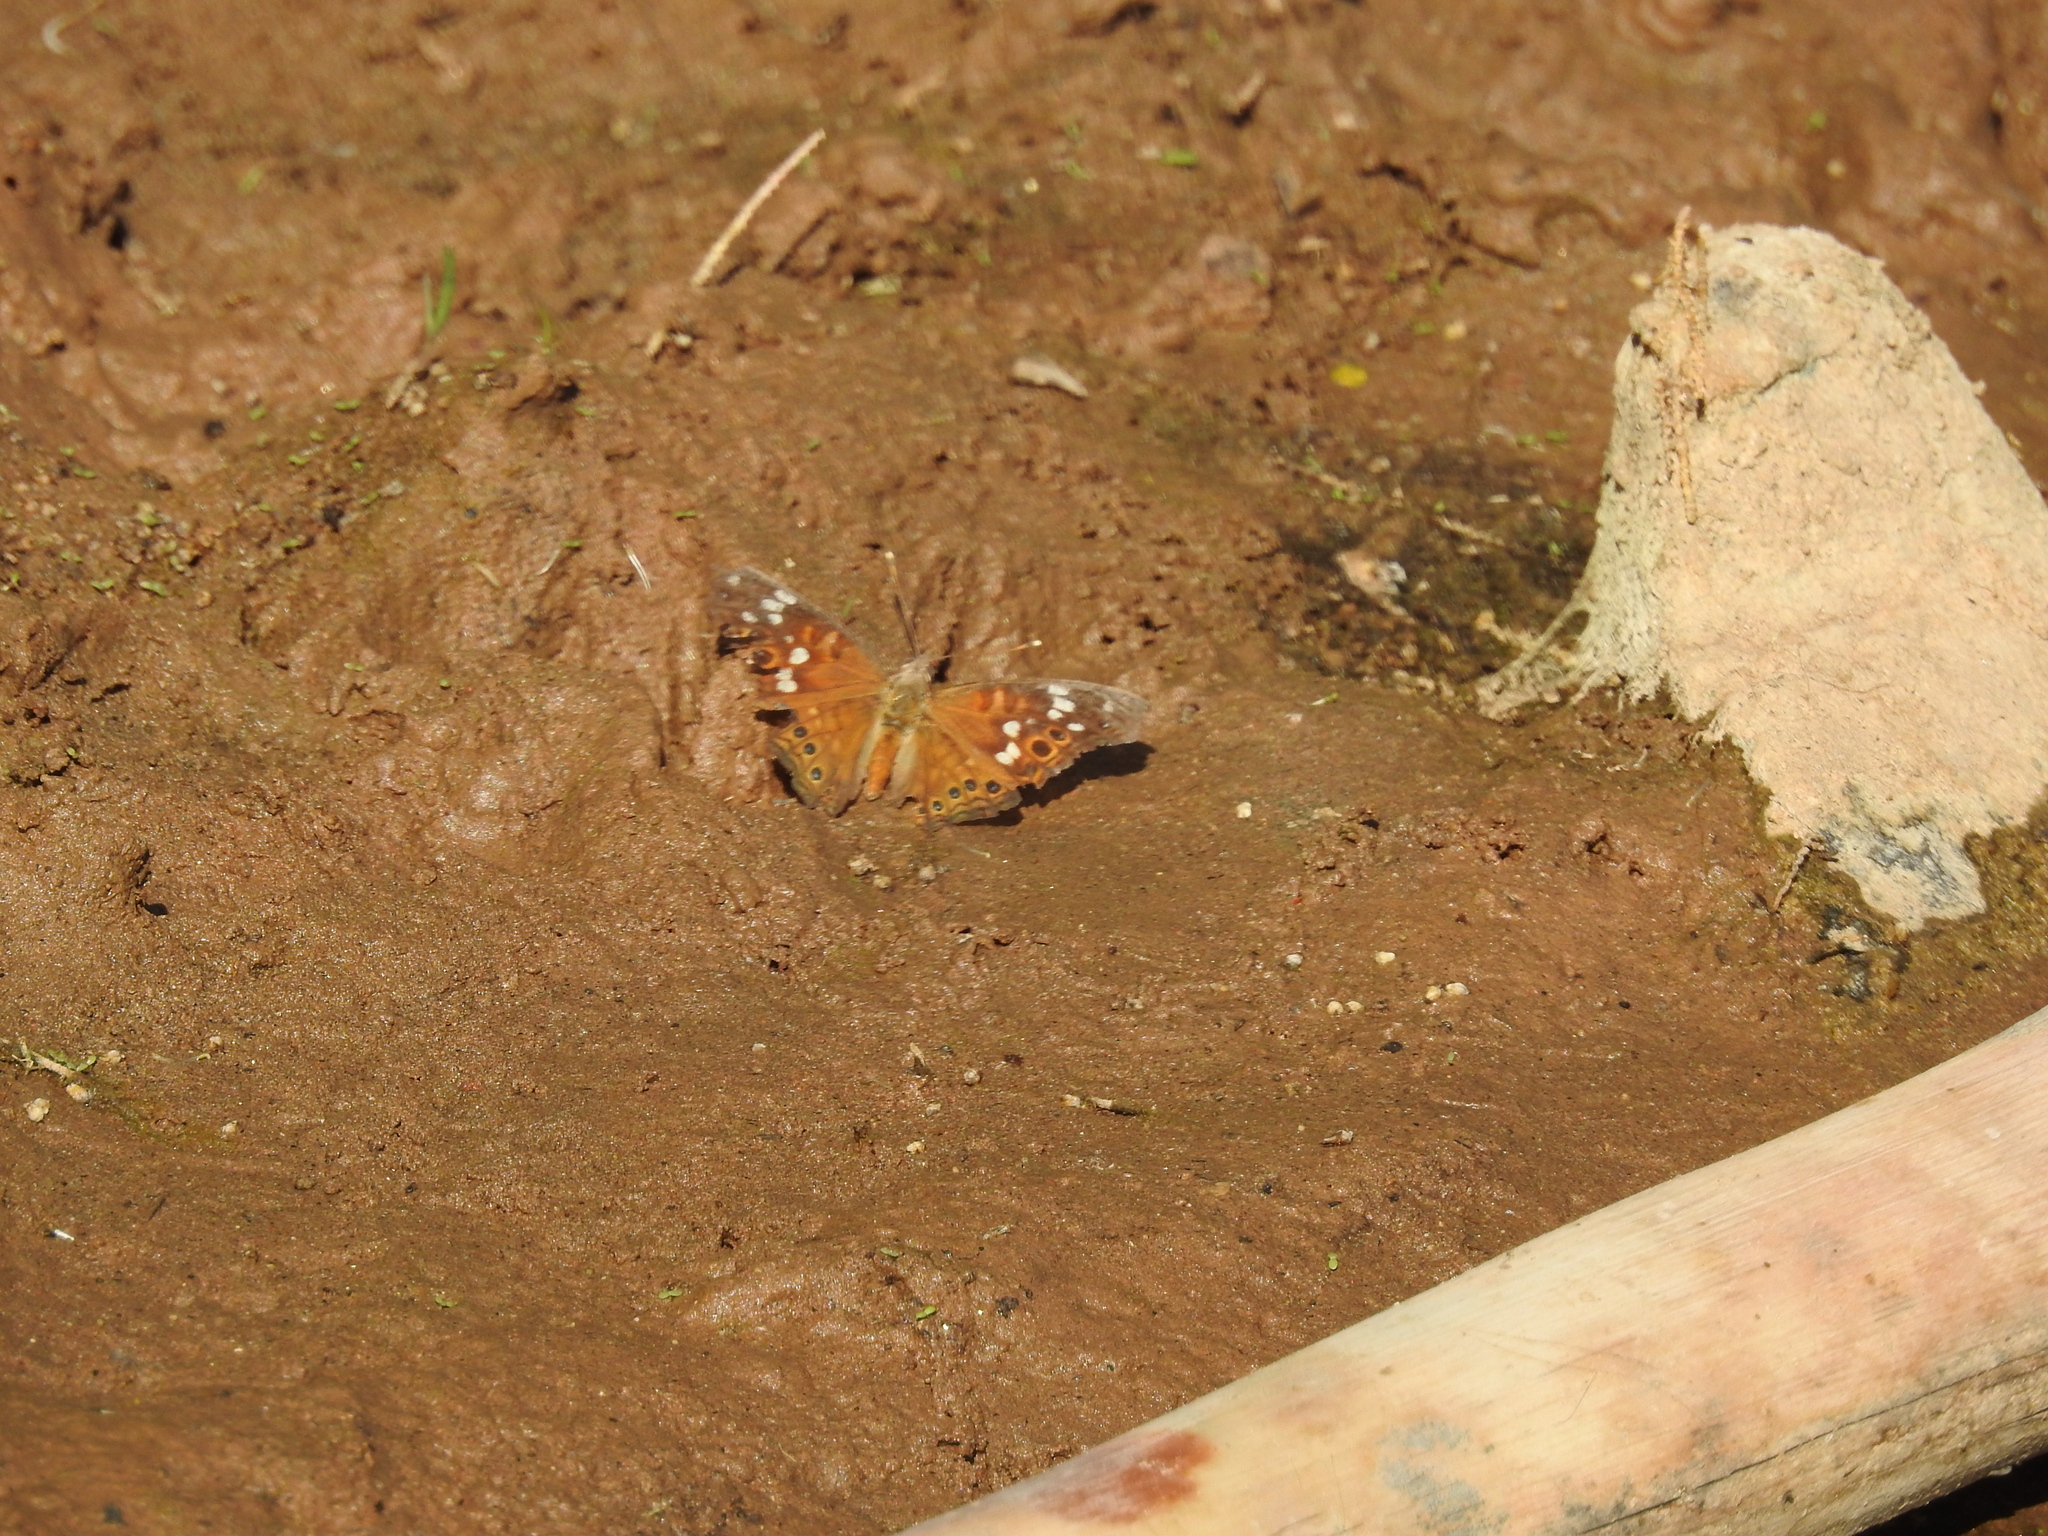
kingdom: Animalia
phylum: Arthropoda
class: Insecta
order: Lepidoptera
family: Nymphalidae
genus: Asterocampa
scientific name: Asterocampa leilia
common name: Empress leilia
